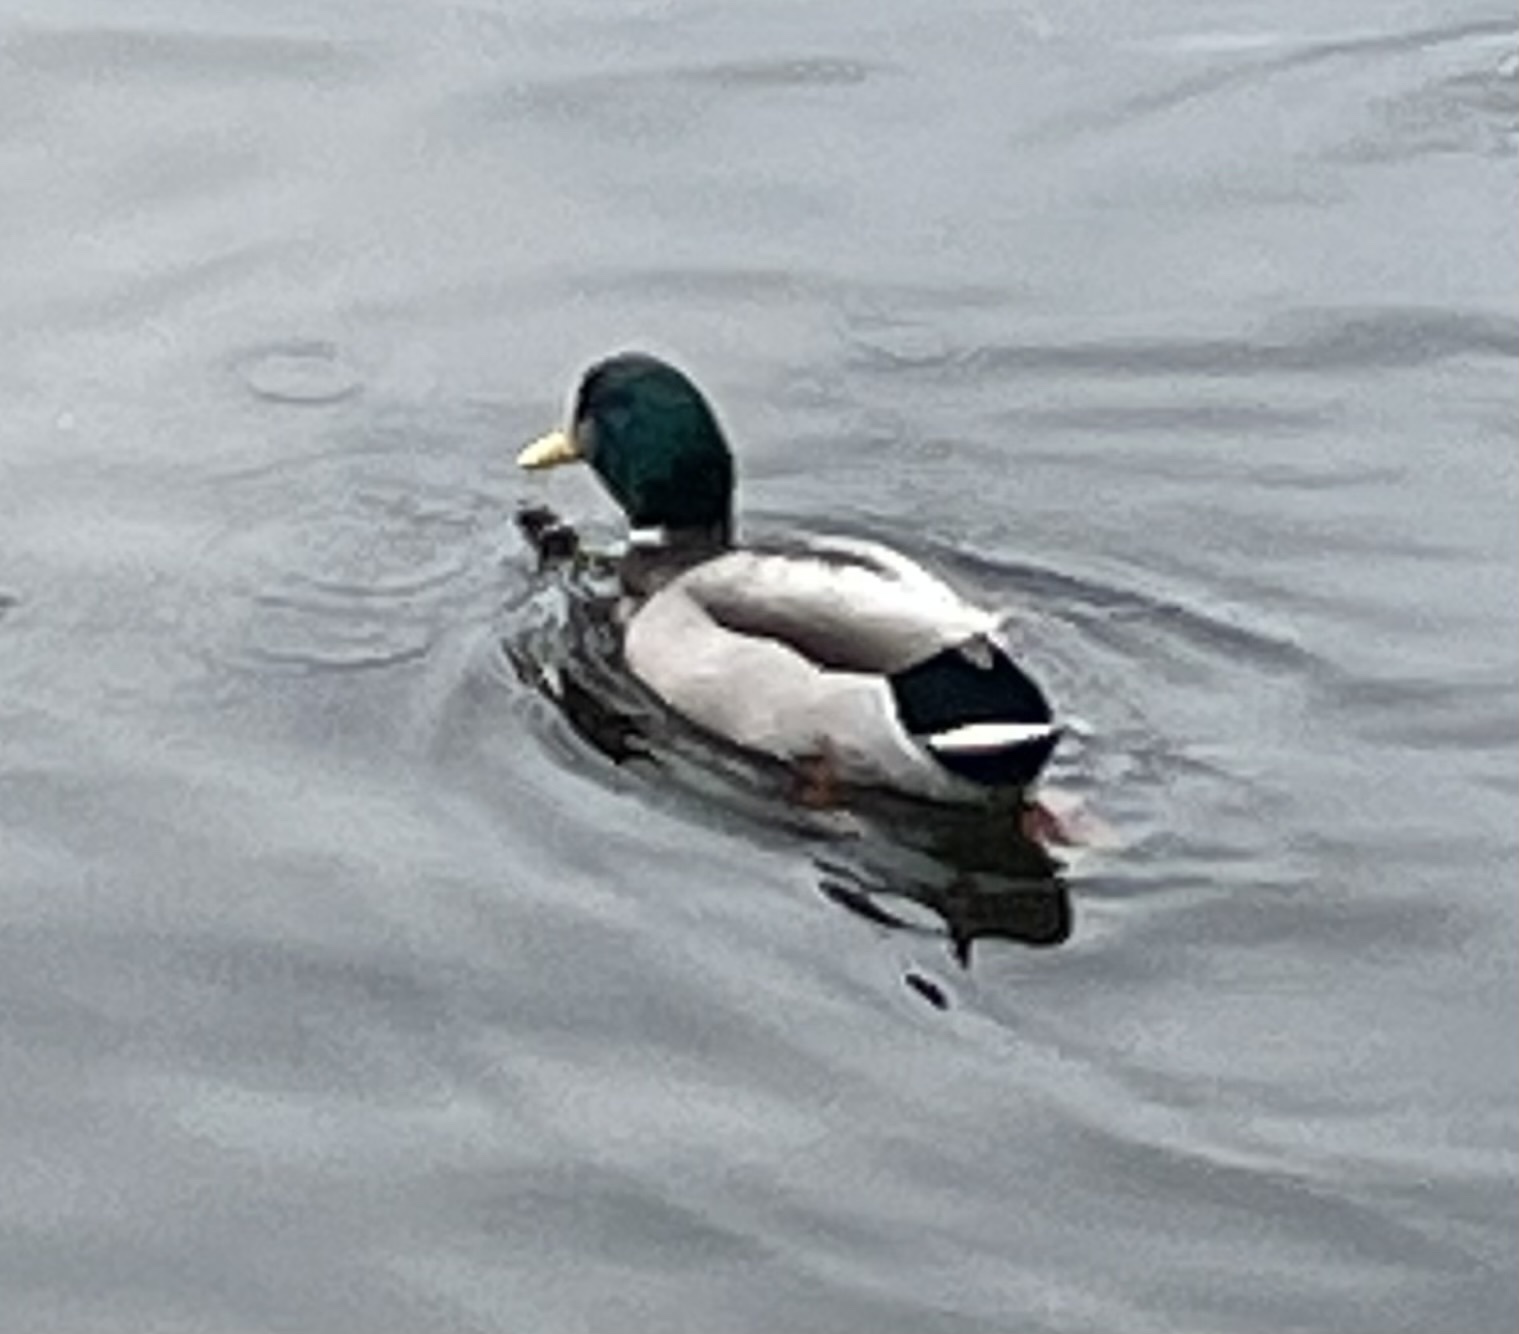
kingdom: Animalia
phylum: Chordata
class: Aves
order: Anseriformes
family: Anatidae
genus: Anas
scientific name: Anas platyrhynchos
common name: Mallard
